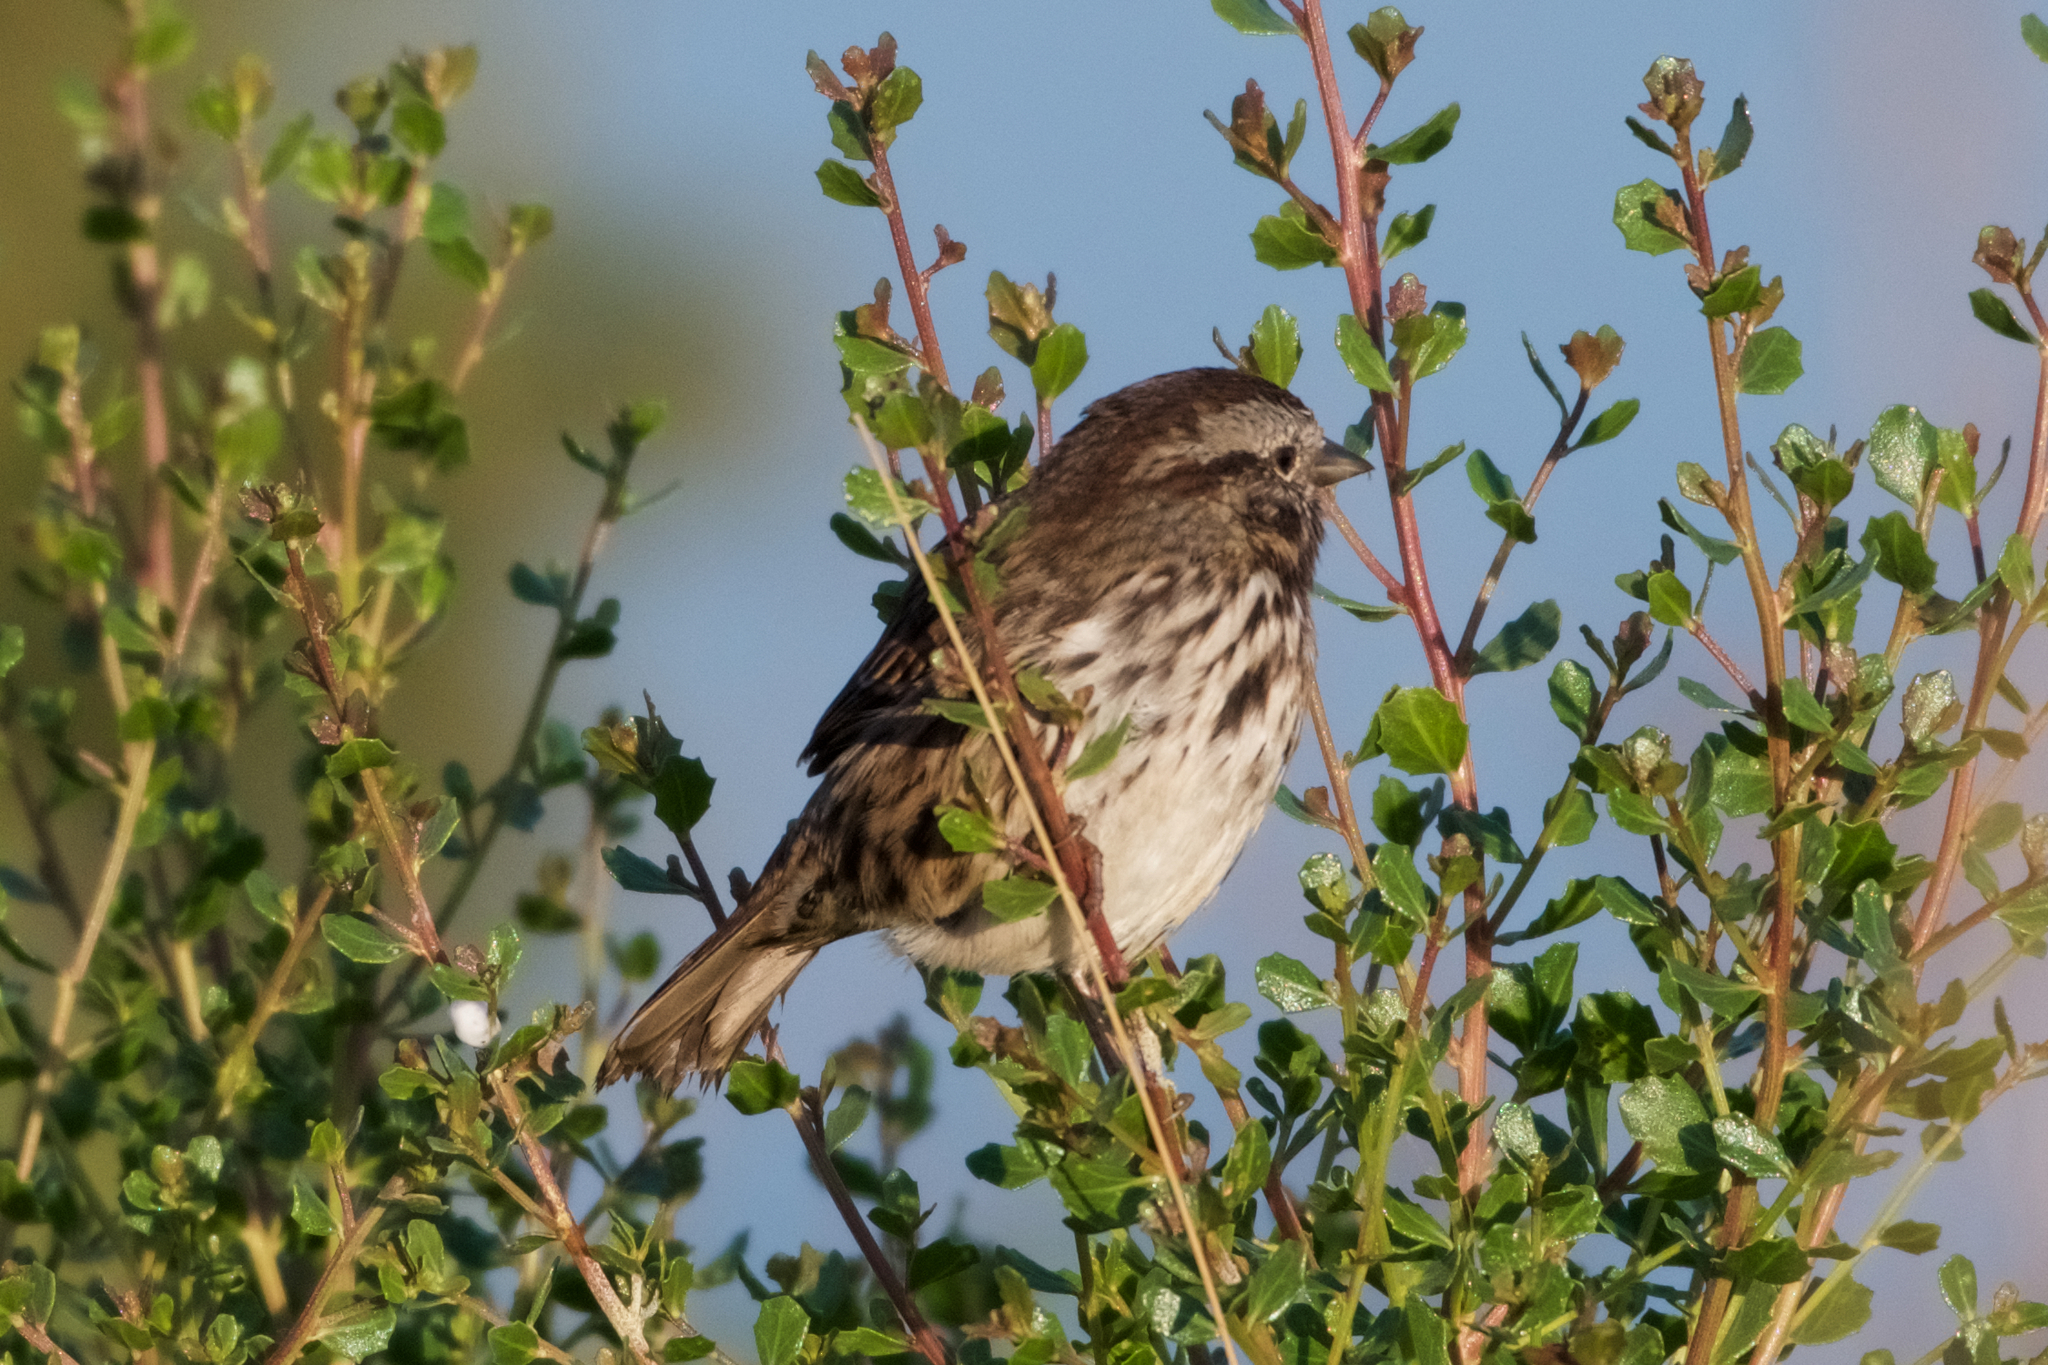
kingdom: Animalia
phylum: Chordata
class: Aves
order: Passeriformes
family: Passerellidae
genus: Melospiza
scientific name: Melospiza melodia
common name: Song sparrow
